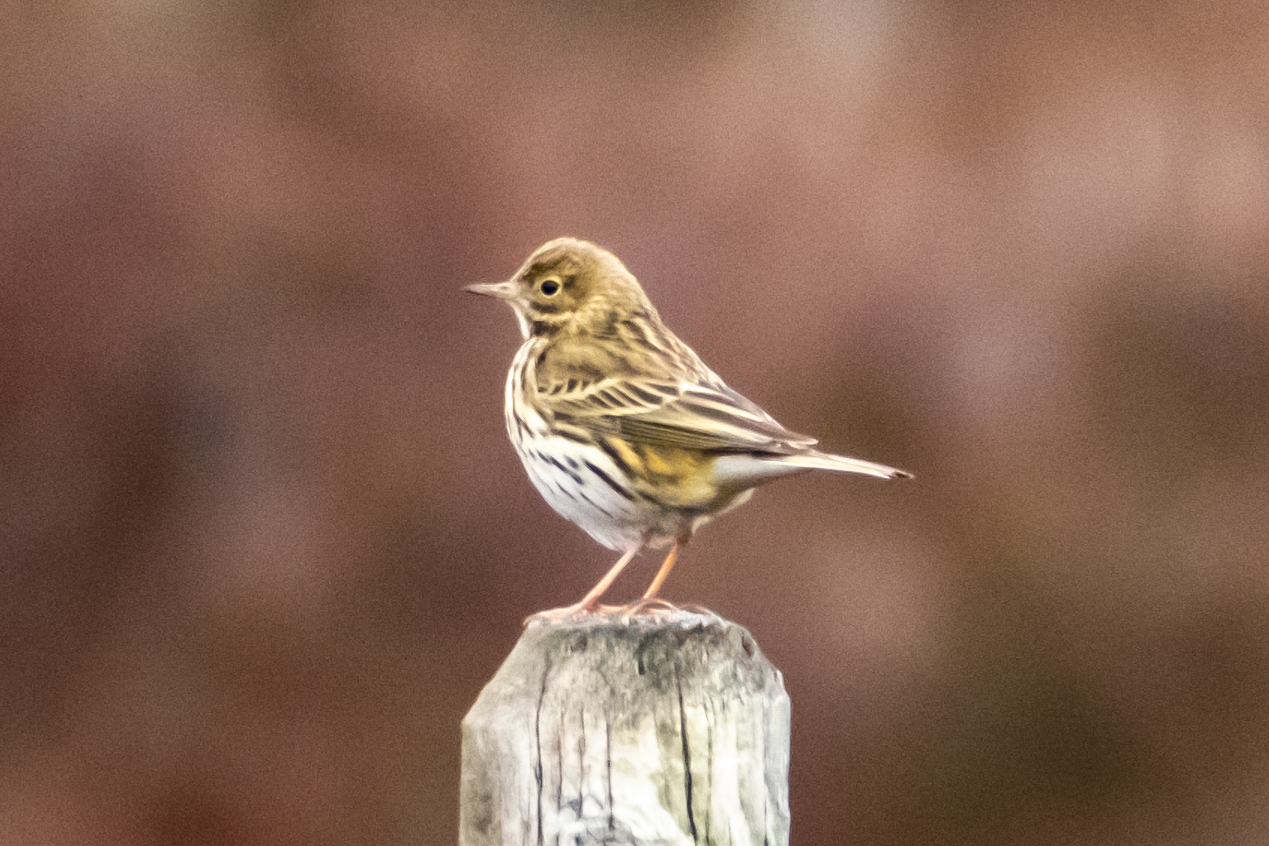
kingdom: Animalia
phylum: Chordata
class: Aves
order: Passeriformes
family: Motacillidae
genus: Anthus
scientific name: Anthus pratensis
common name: Meadow pipit
